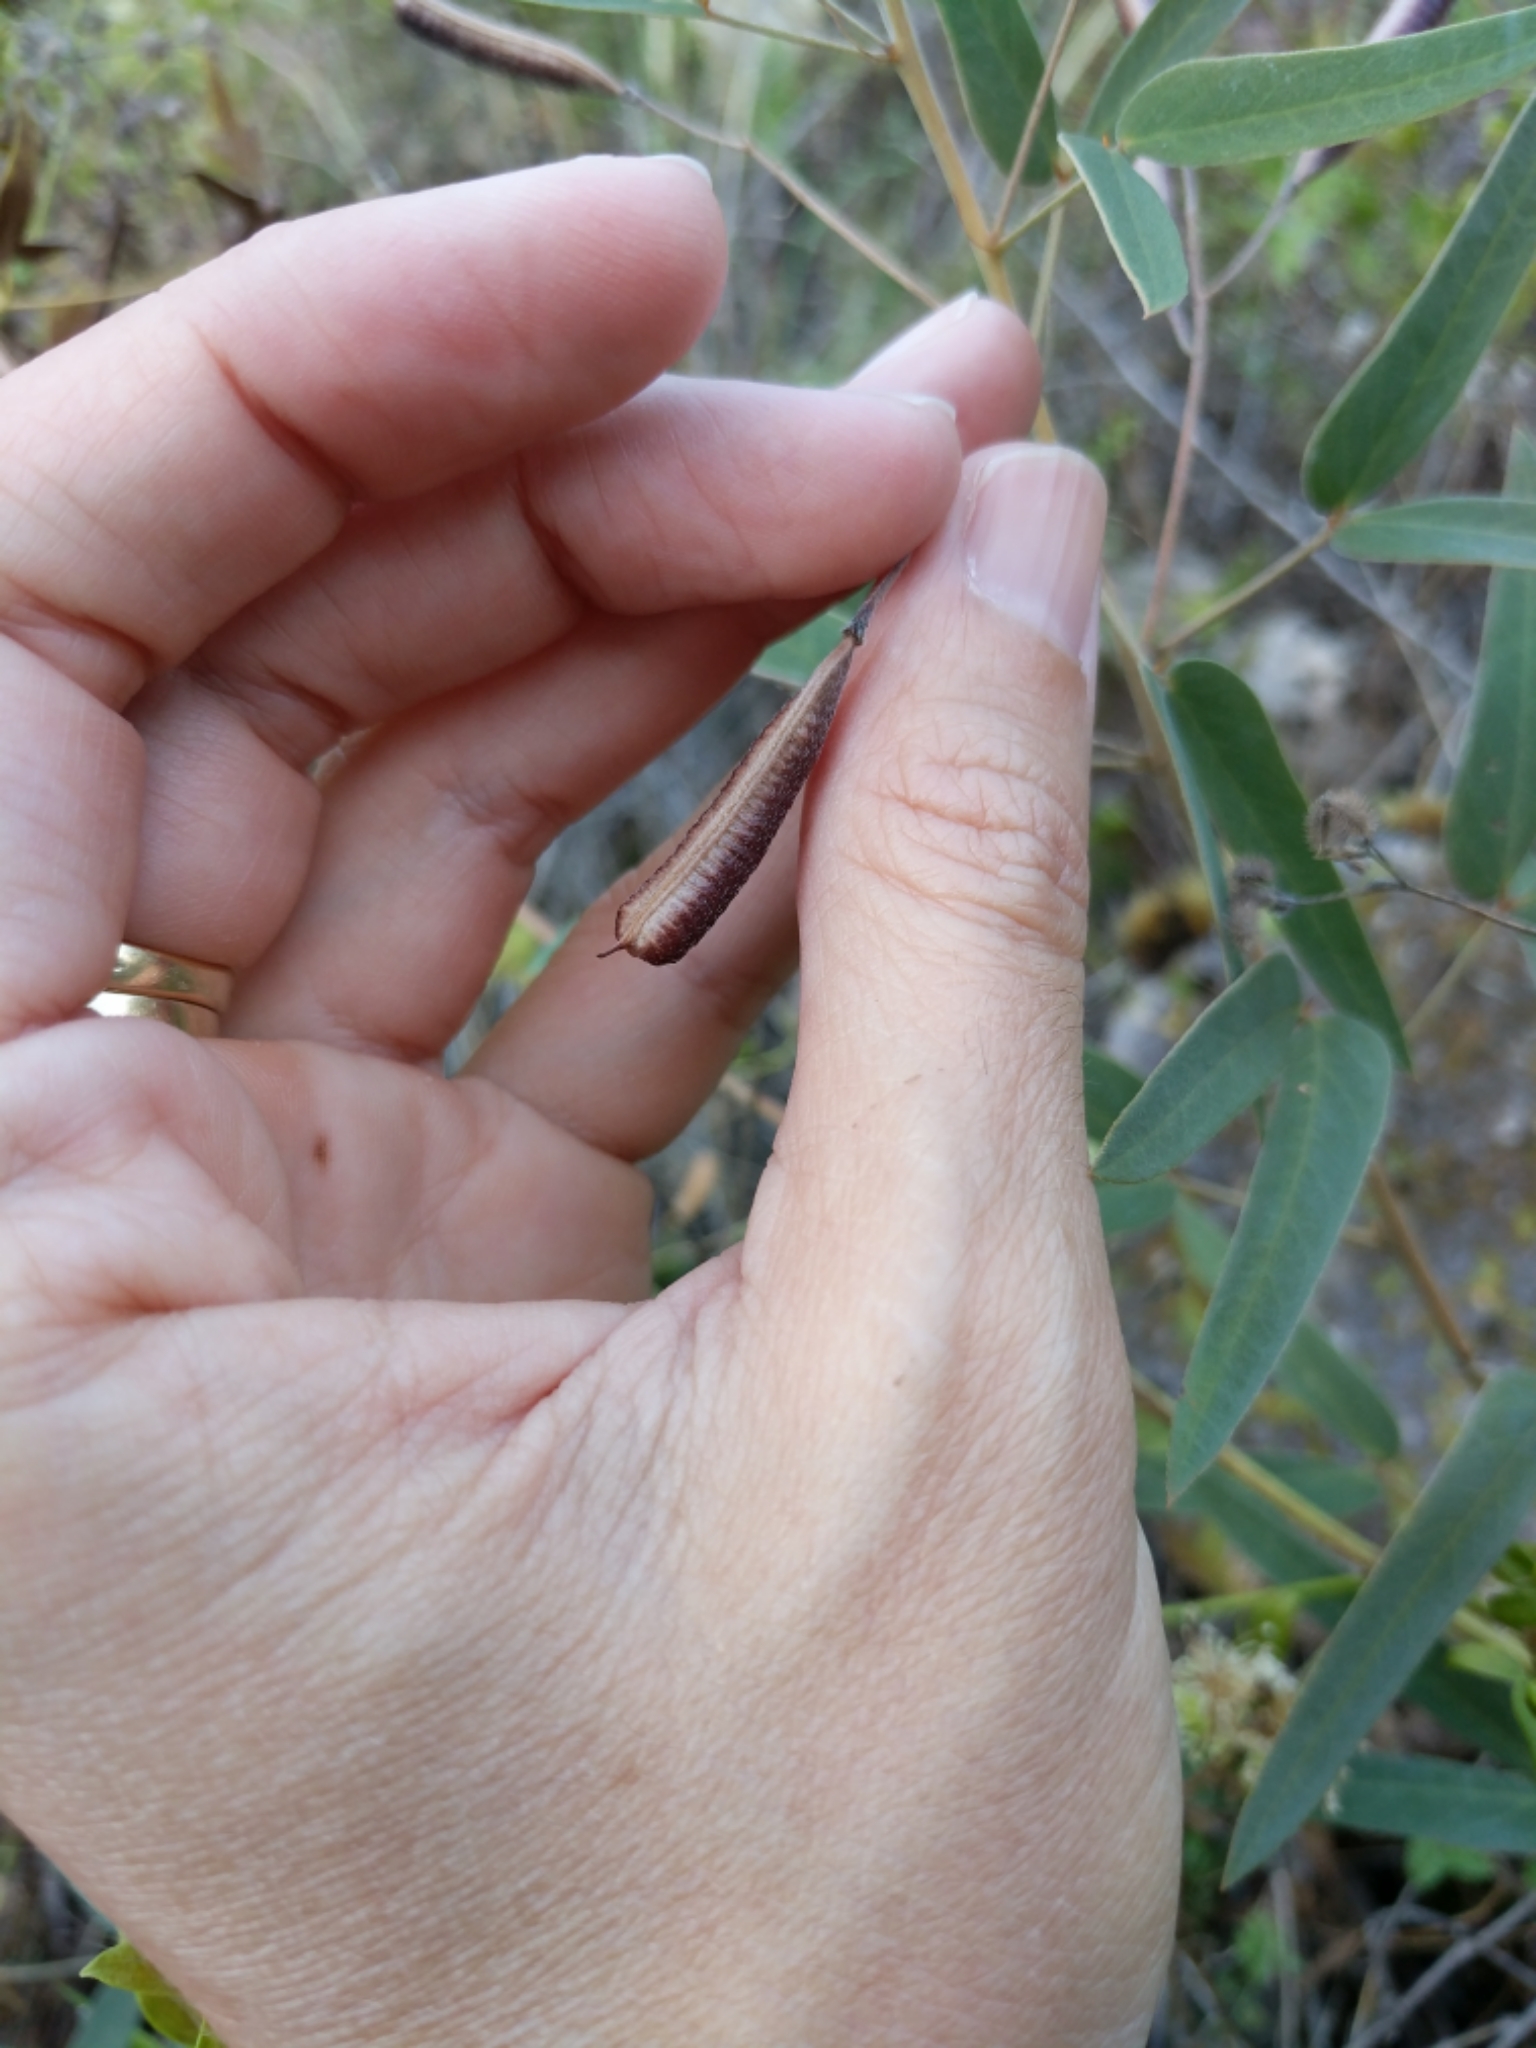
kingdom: Plantae
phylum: Tracheophyta
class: Magnoliopsida
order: Fabales
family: Fabaceae
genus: Senna
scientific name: Senna roemeriana
